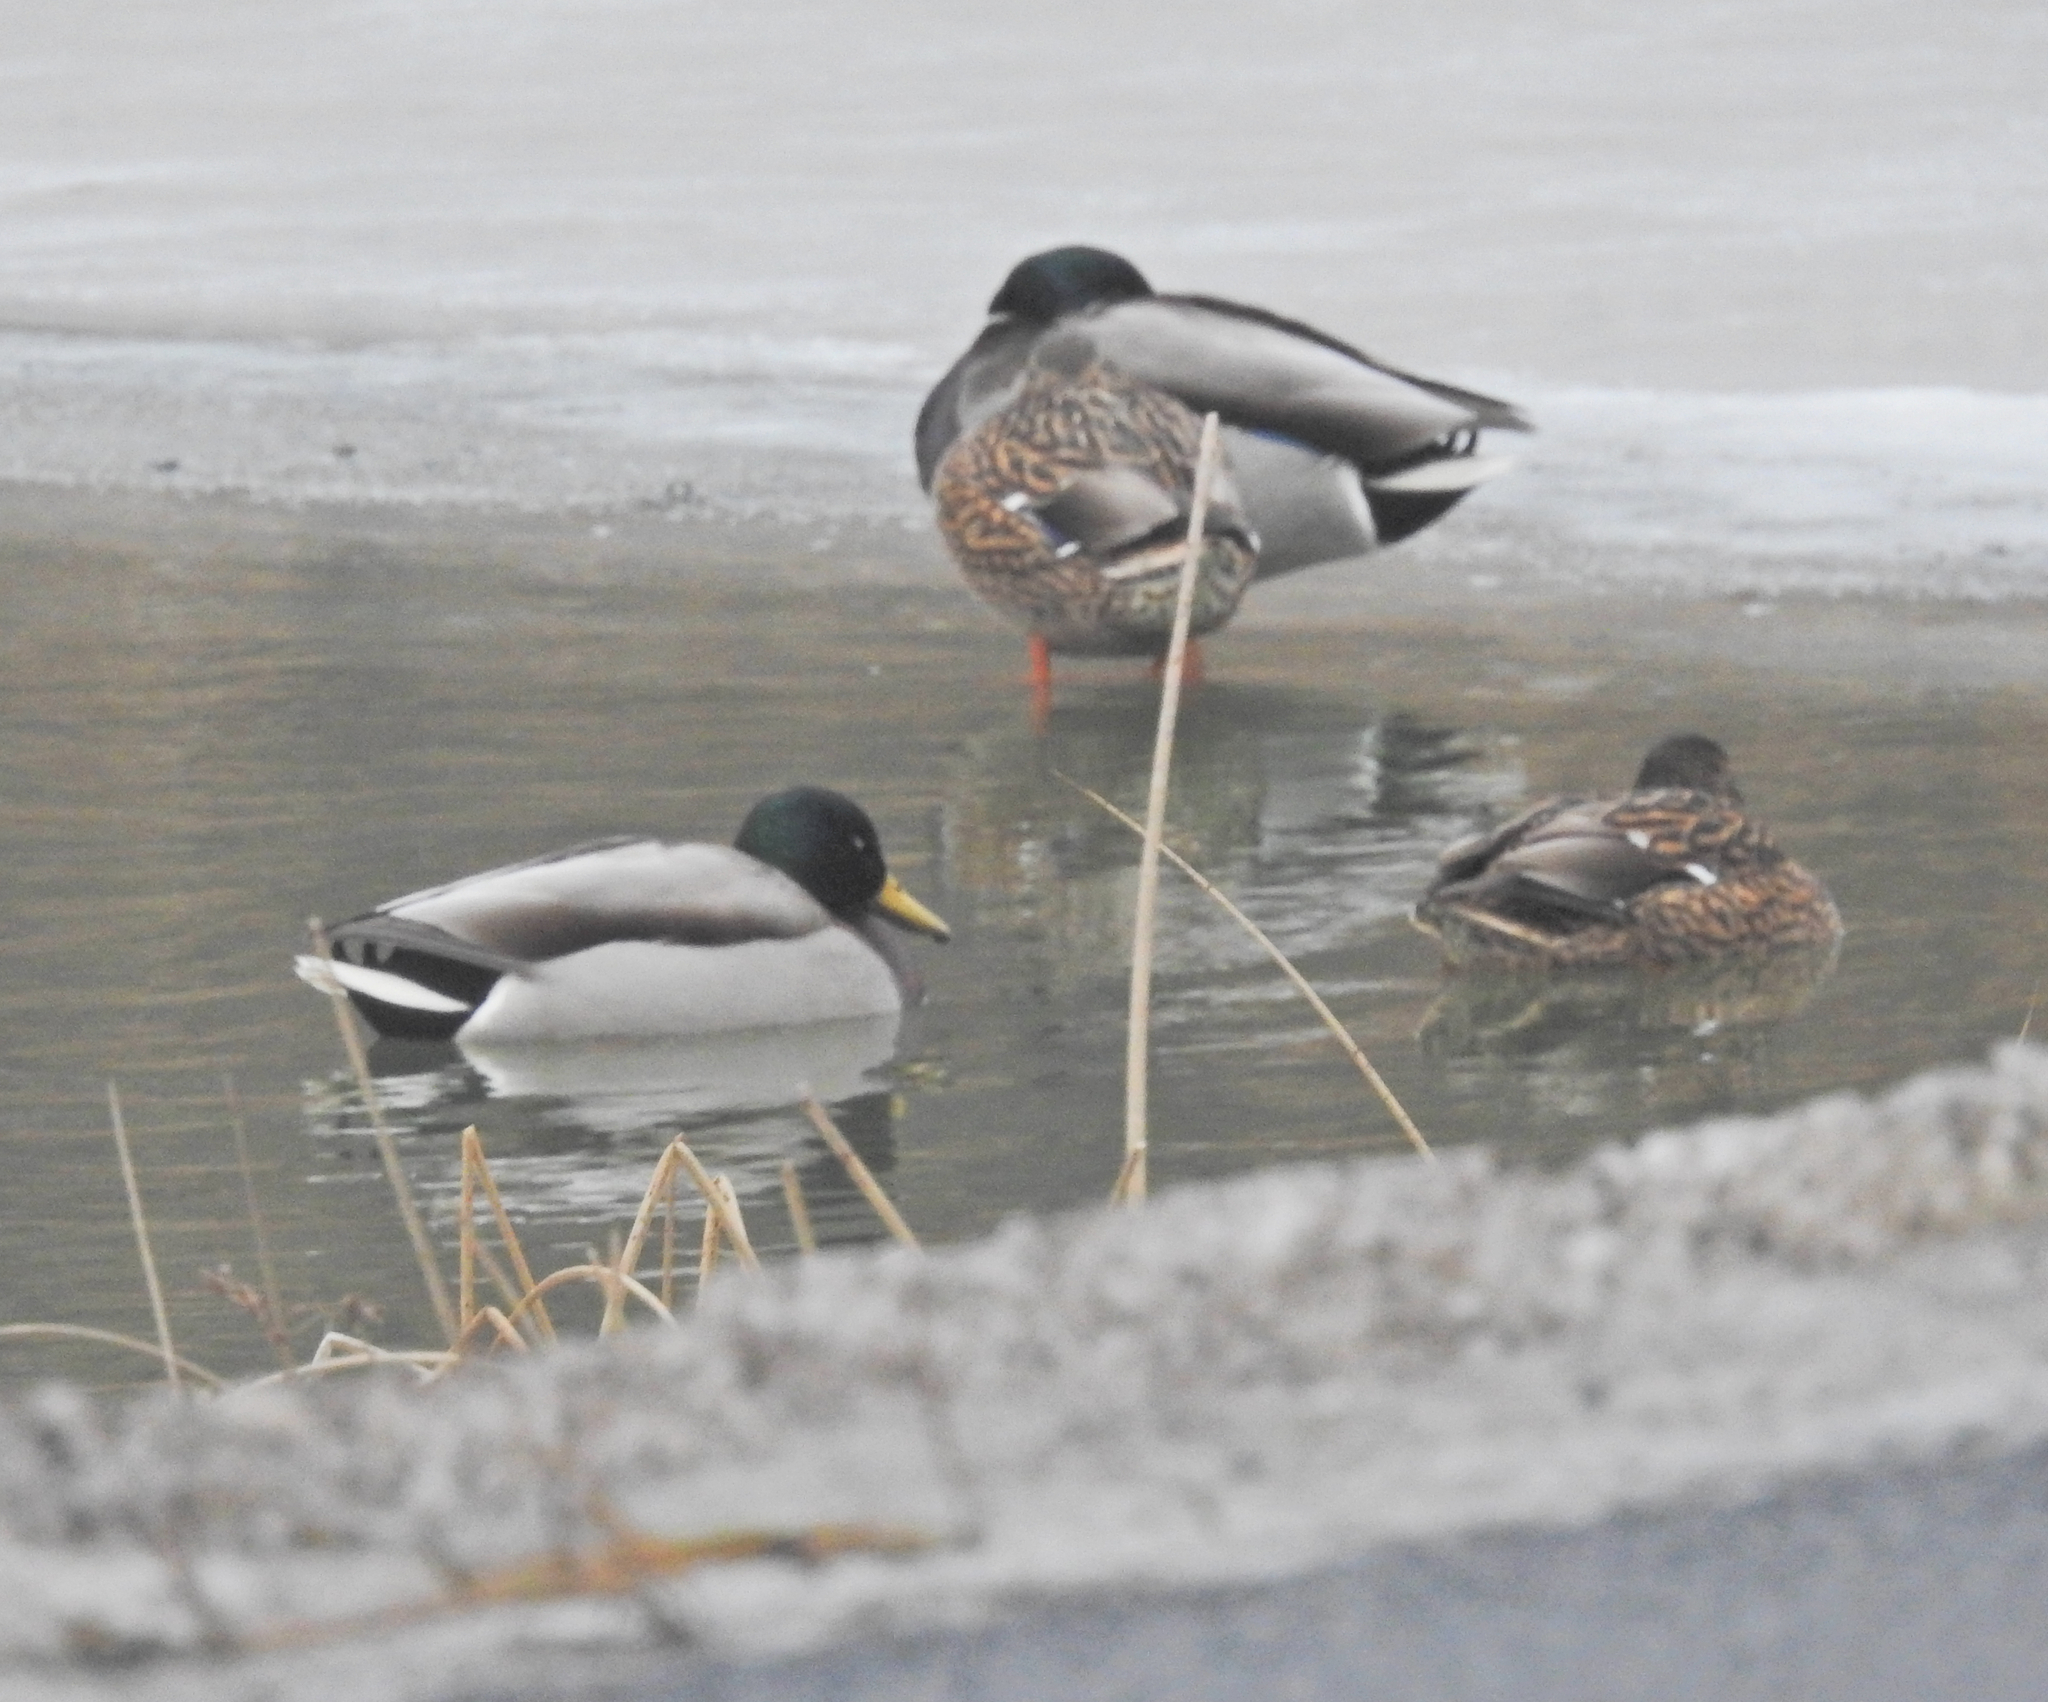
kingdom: Animalia
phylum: Chordata
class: Aves
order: Anseriformes
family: Anatidae
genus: Anas
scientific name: Anas platyrhynchos
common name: Mallard
